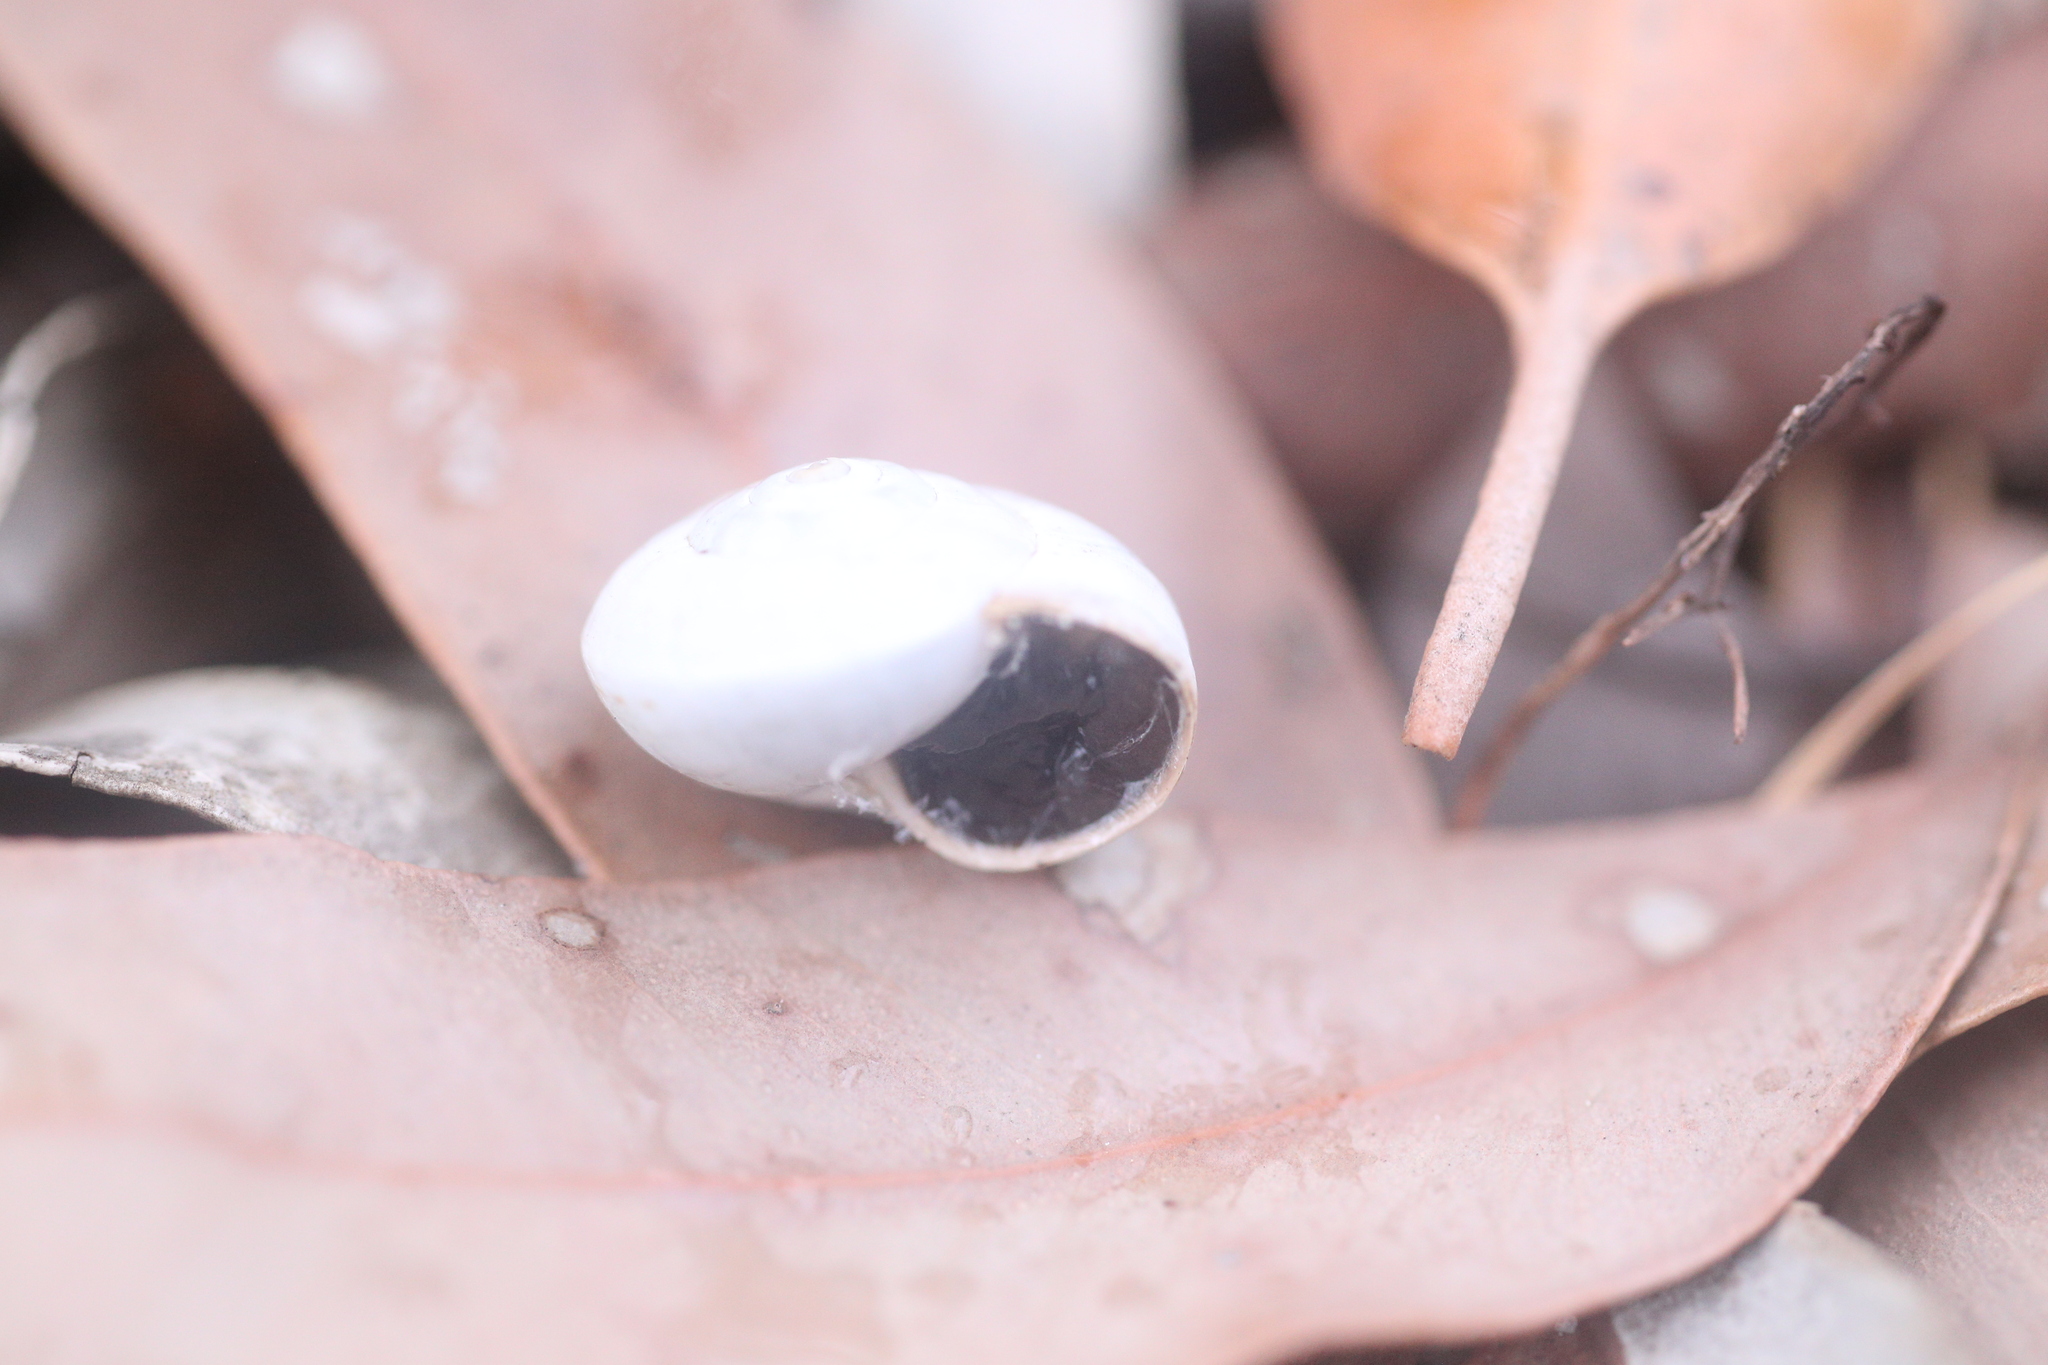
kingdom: Animalia
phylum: Mollusca
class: Gastropoda
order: Stylommatophora
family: Helicidae
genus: Theba
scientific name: Theba pisana
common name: White snail
